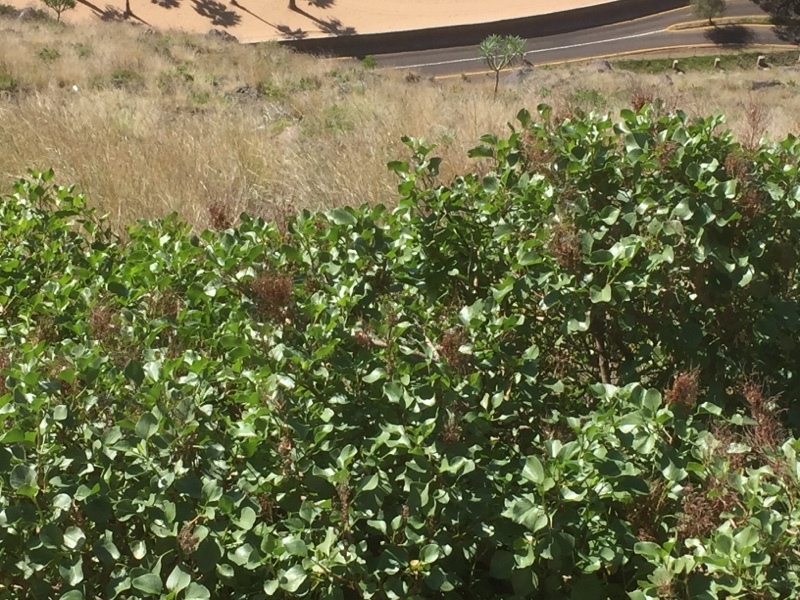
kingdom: Plantae
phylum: Tracheophyta
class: Magnoliopsida
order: Caryophyllales
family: Polygonaceae
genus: Rumex
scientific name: Rumex lunaria
